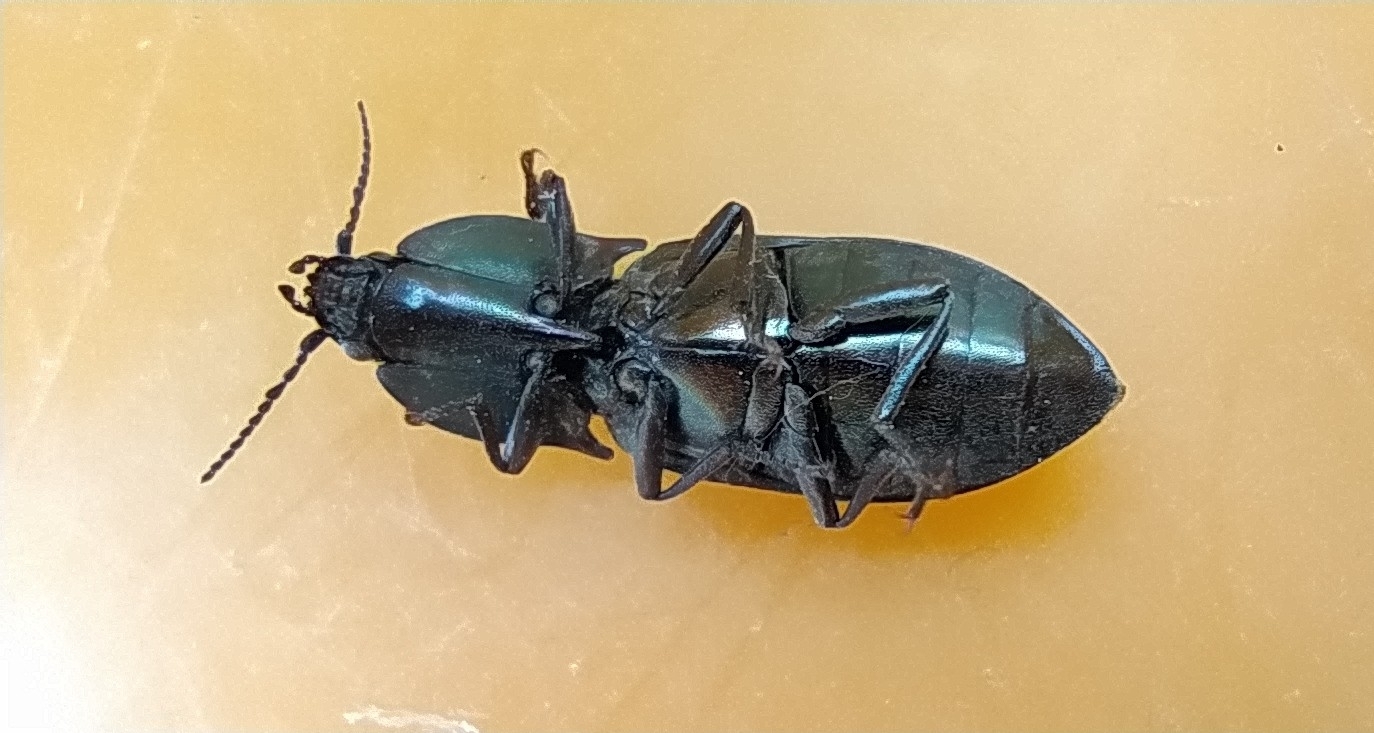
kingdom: Animalia
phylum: Arthropoda
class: Insecta
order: Coleoptera
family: Elateridae
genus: Selatosomus
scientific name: Selatosomus aeneus
